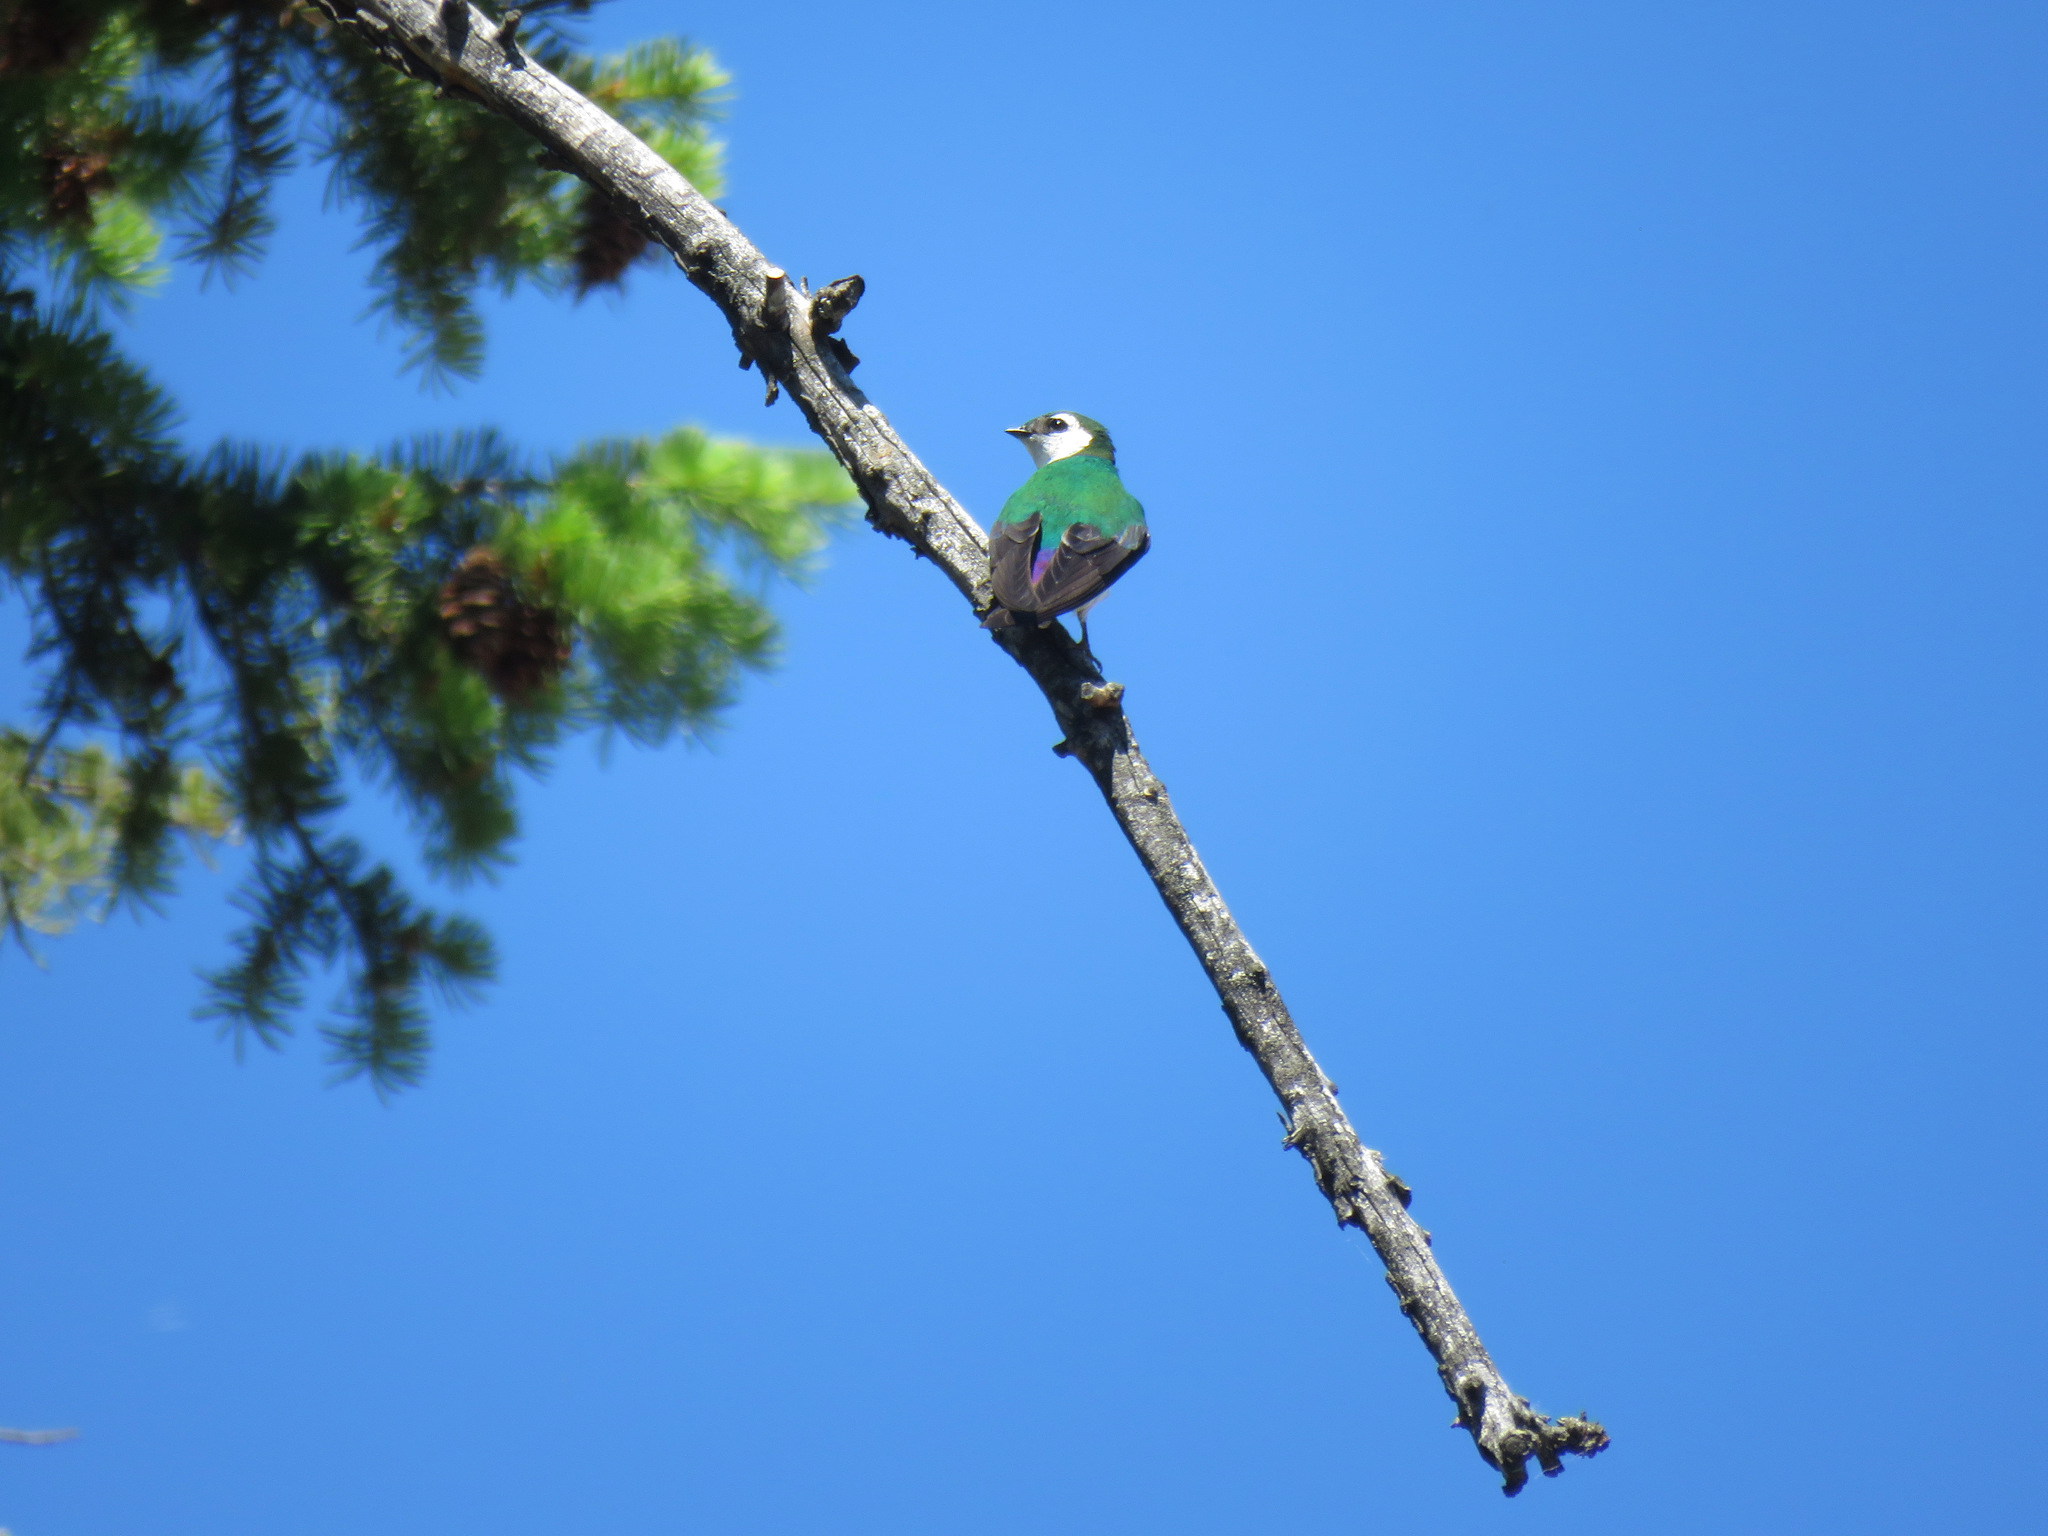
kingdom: Animalia
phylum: Chordata
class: Aves
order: Passeriformes
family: Hirundinidae
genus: Tachycineta
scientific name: Tachycineta thalassina
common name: Violet-green swallow
